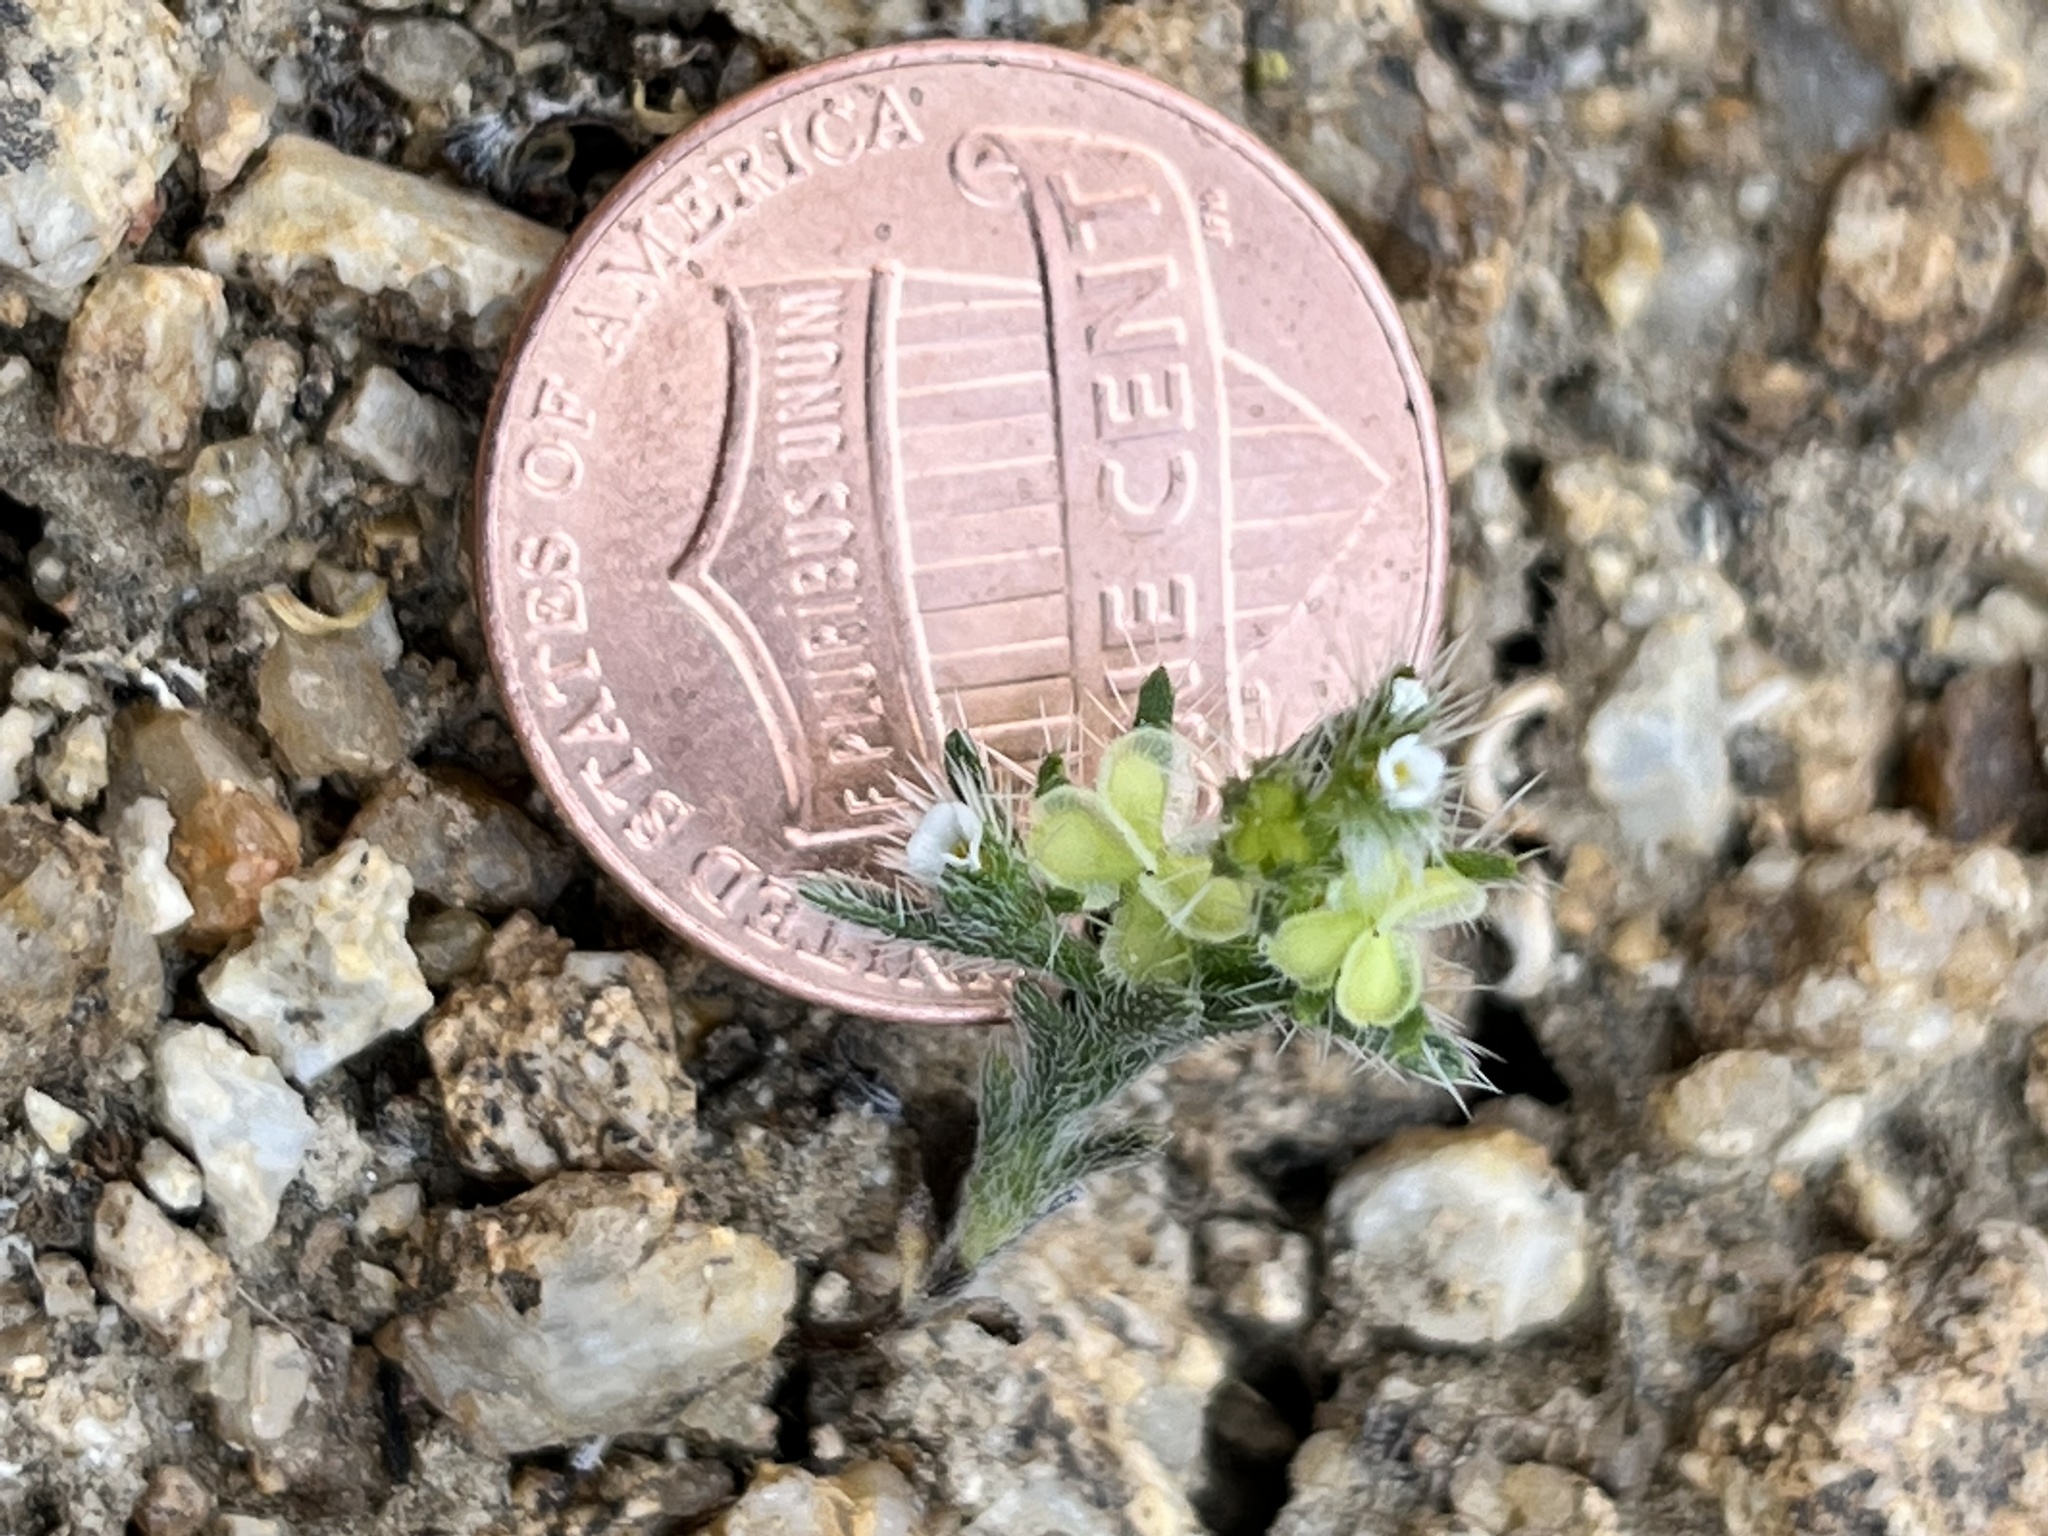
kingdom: Plantae
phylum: Tracheophyta
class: Magnoliopsida
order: Boraginales
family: Boraginaceae
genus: Pectocarya
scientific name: Pectocarya setosa
